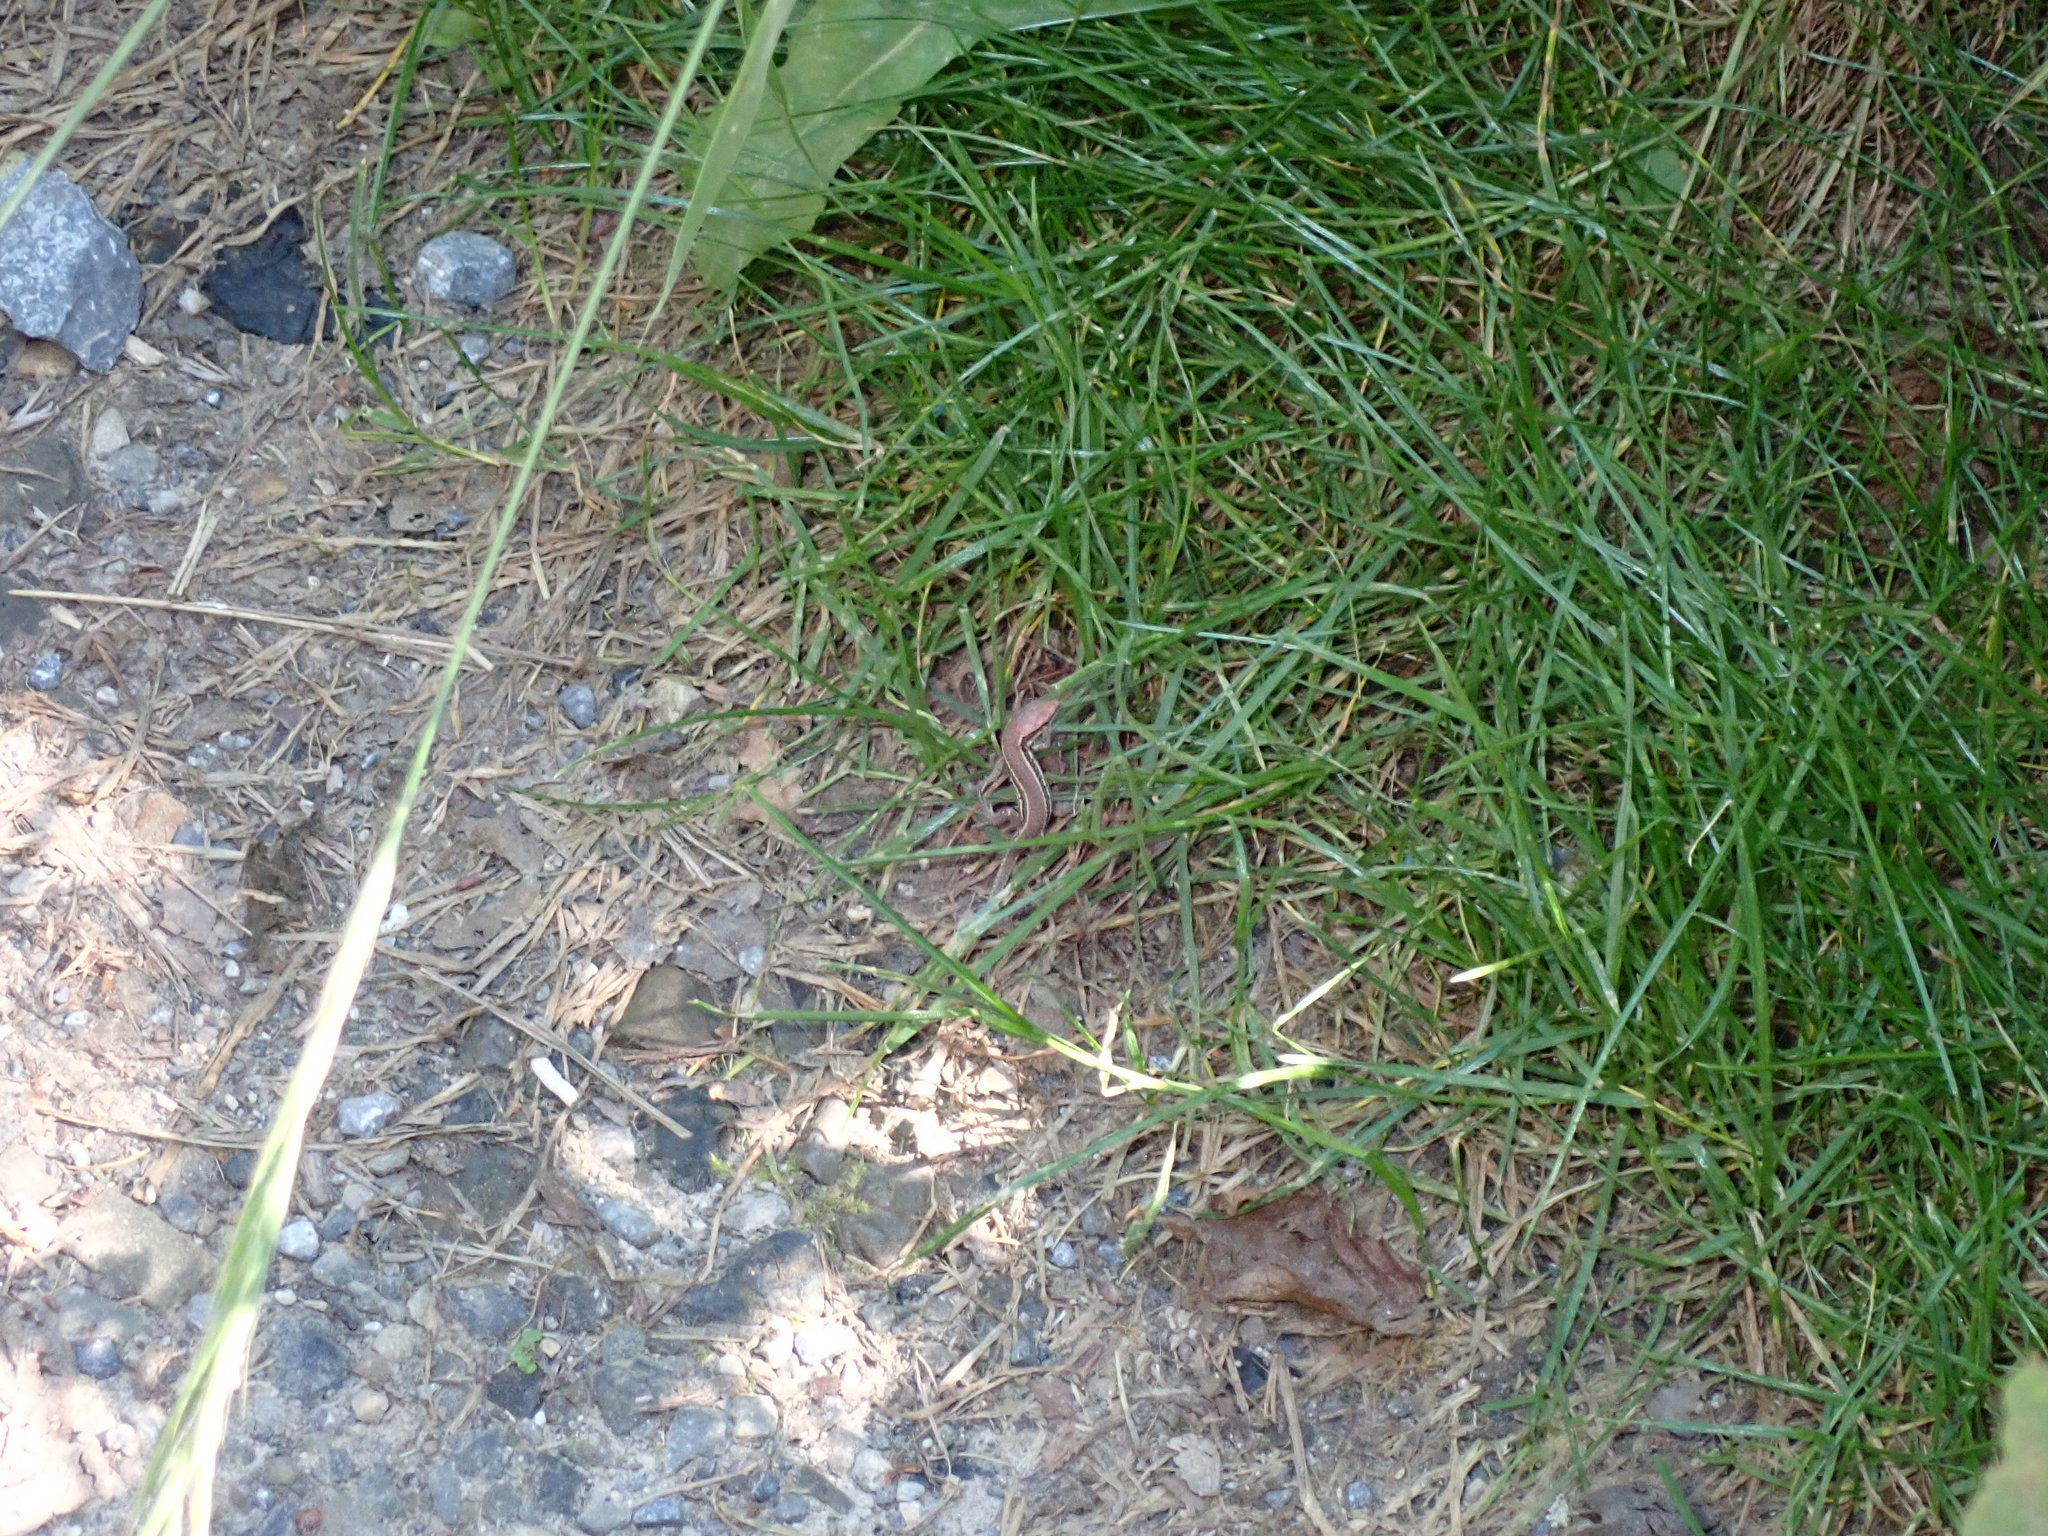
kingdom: Animalia
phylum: Chordata
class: Squamata
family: Lacertidae
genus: Podarcis
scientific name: Podarcis muralis
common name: Common wall lizard
